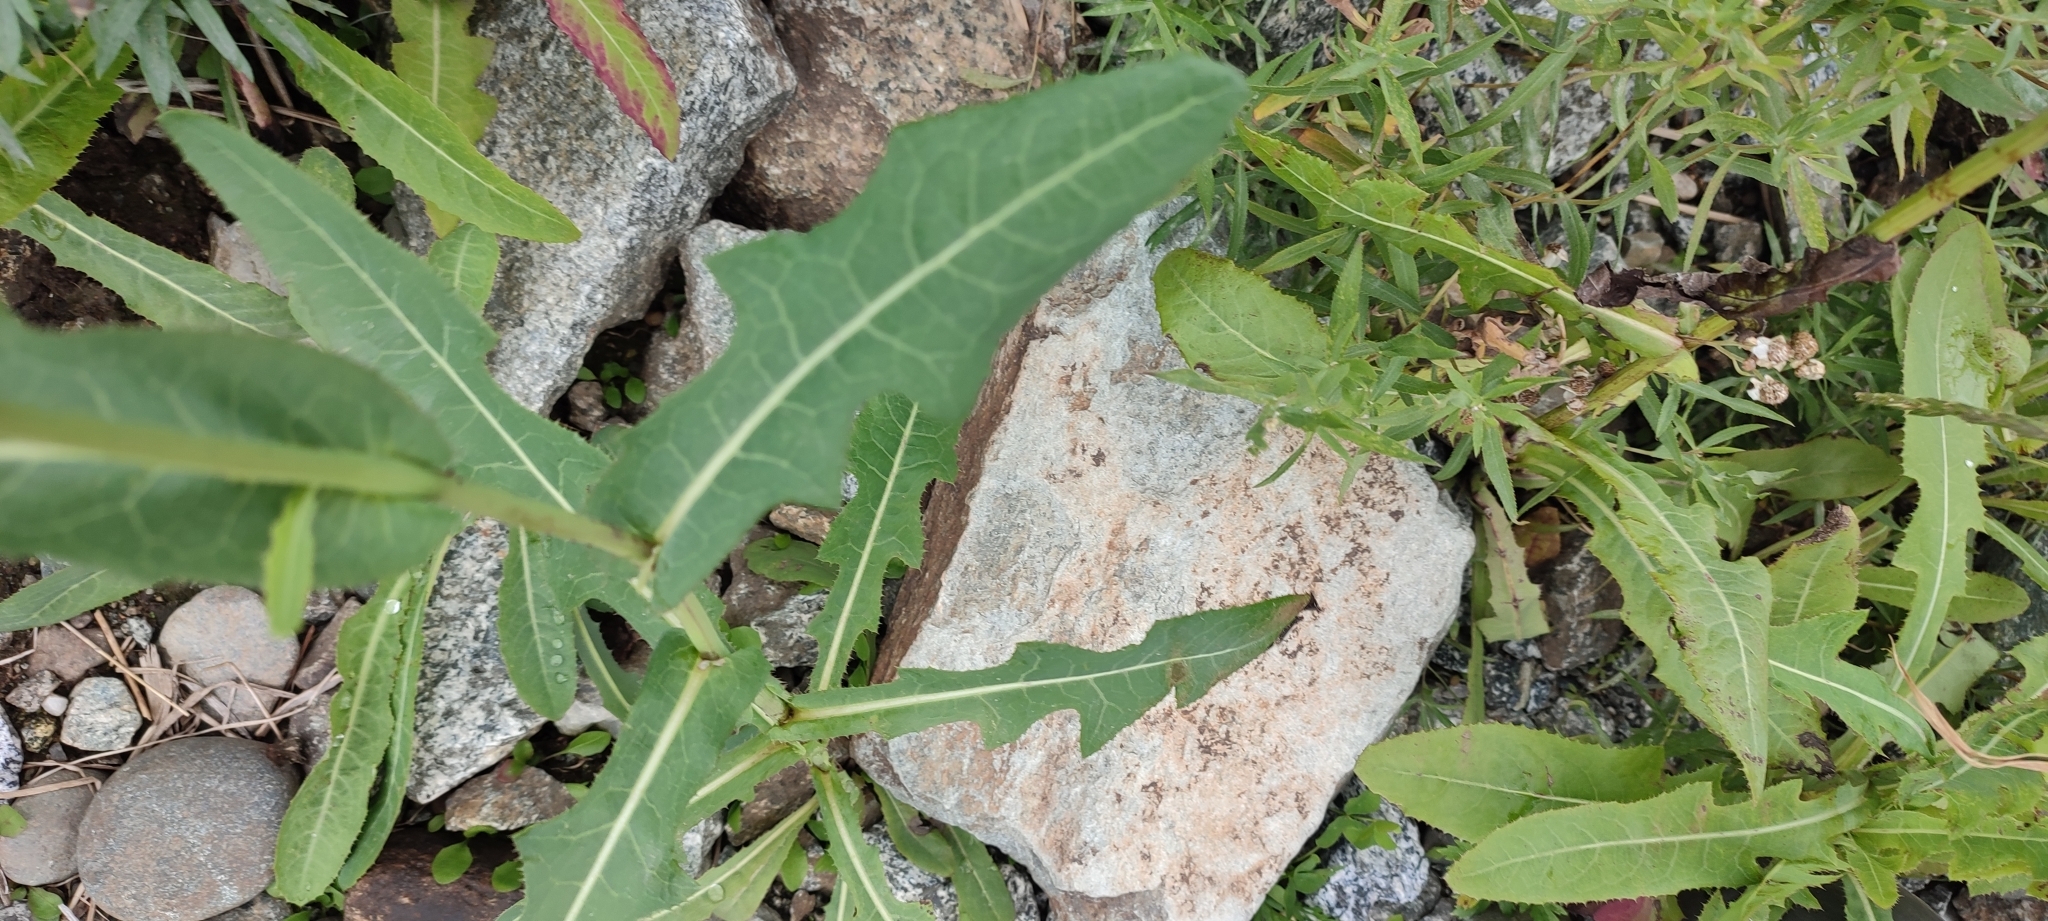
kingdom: Plantae
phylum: Tracheophyta
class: Magnoliopsida
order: Asterales
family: Asteraceae
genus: Sonchus
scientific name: Sonchus arvensis
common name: Perennial sow-thistle
